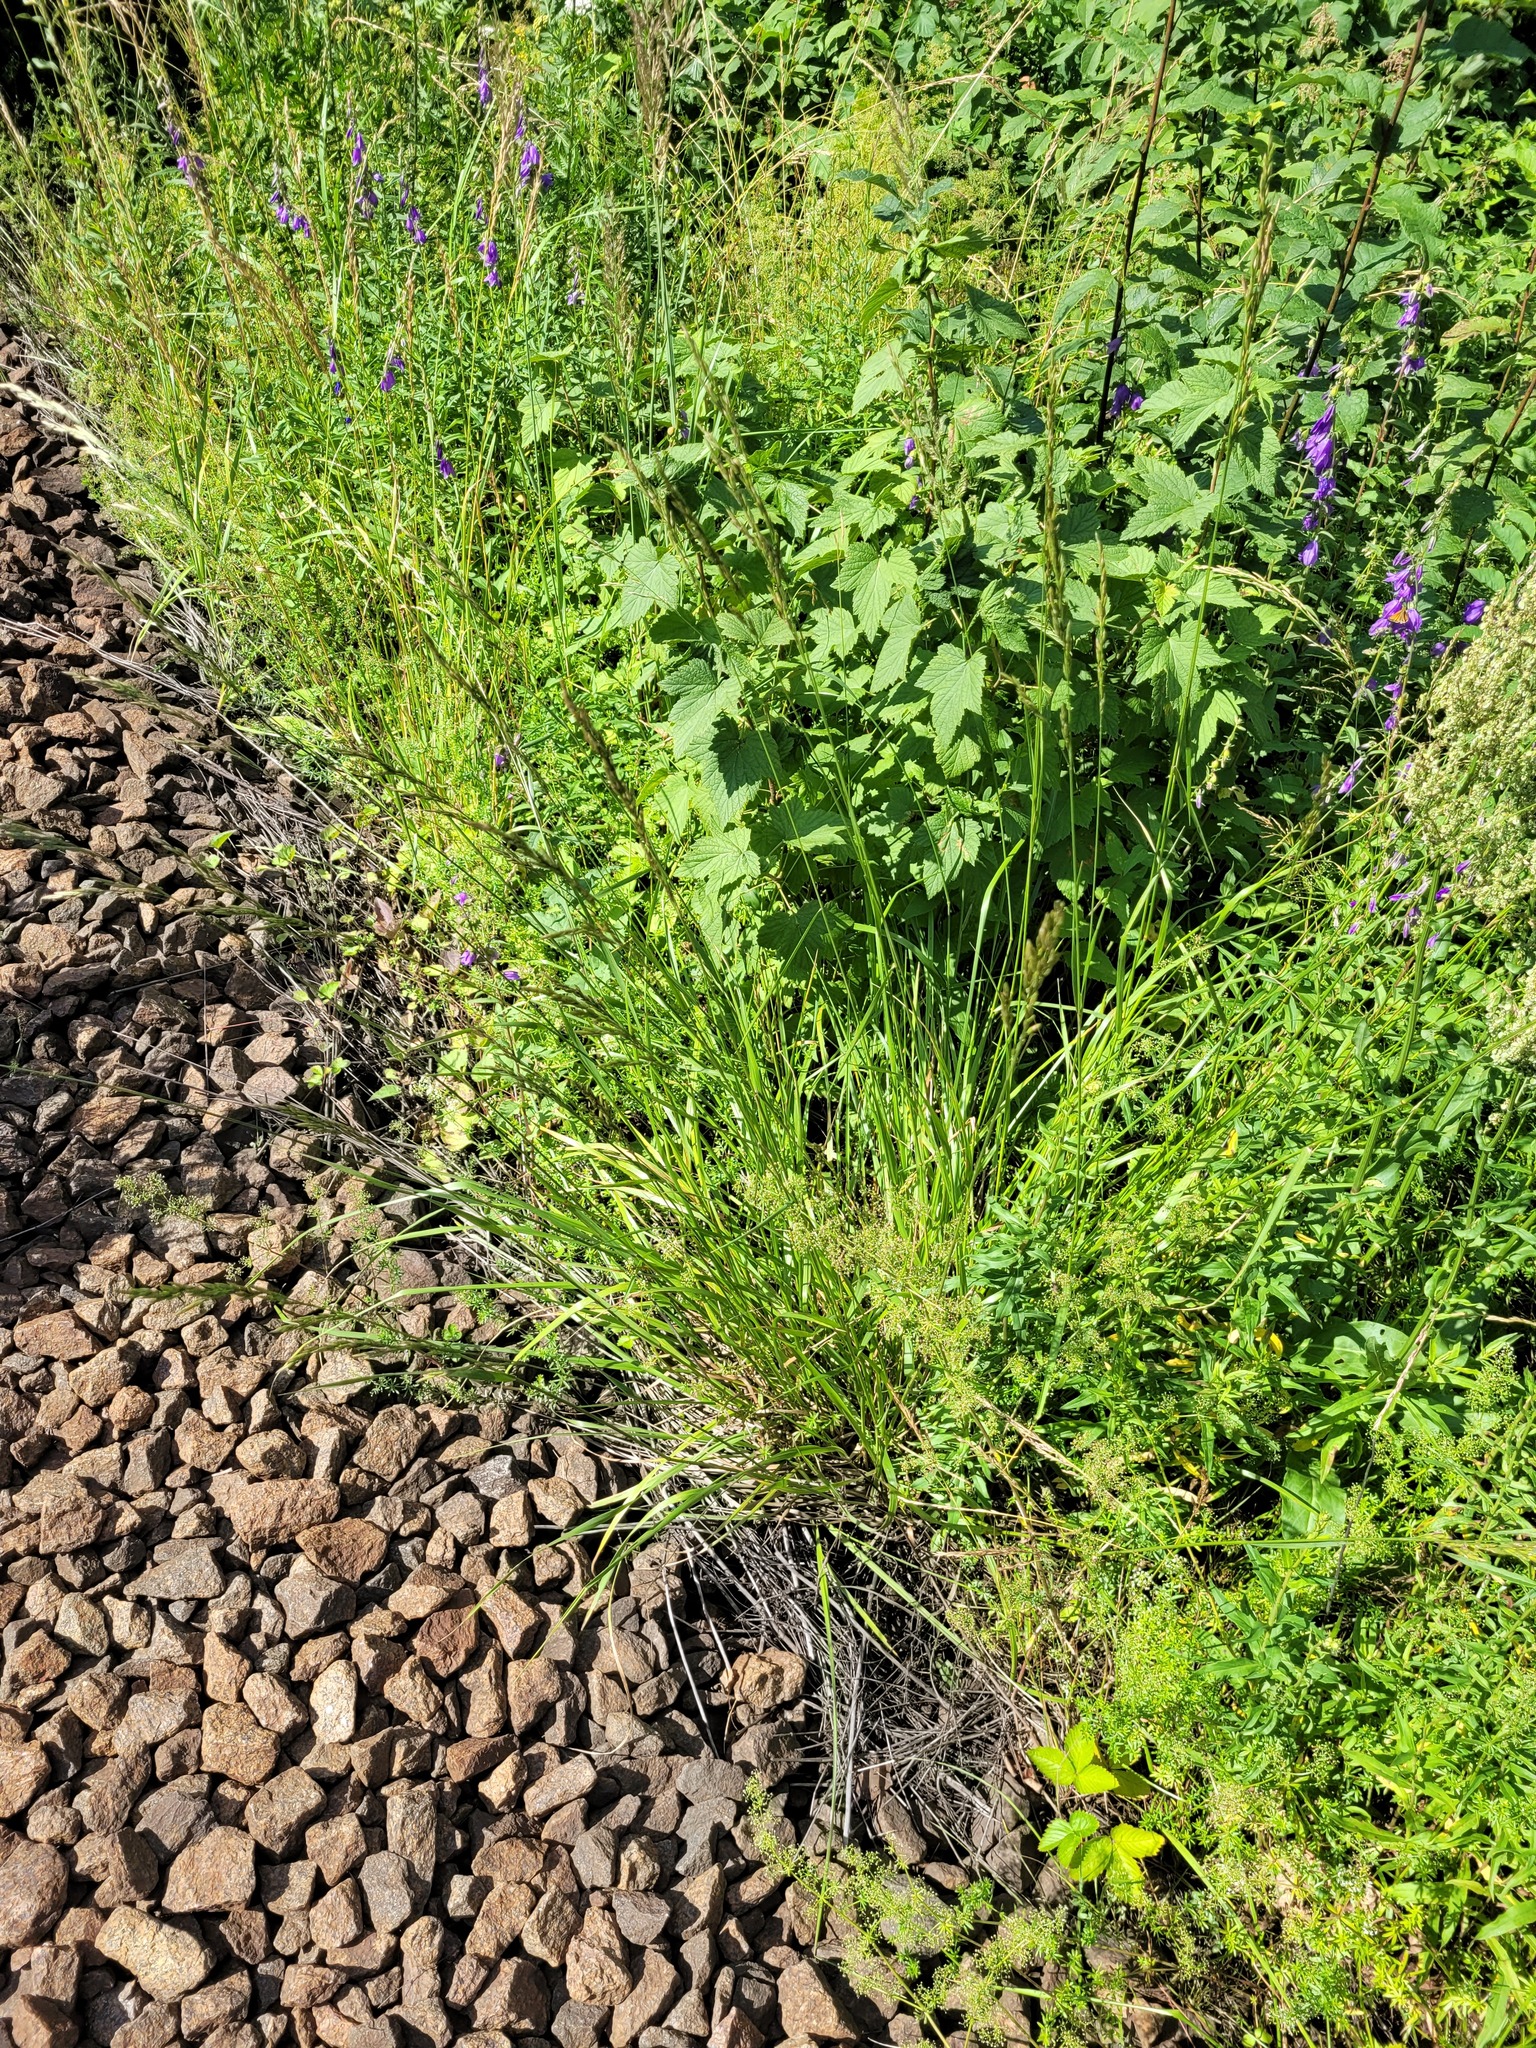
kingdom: Plantae
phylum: Tracheophyta
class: Liliopsida
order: Poales
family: Poaceae
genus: Lolium
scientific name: Lolium arundinaceum
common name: Reed fescue
